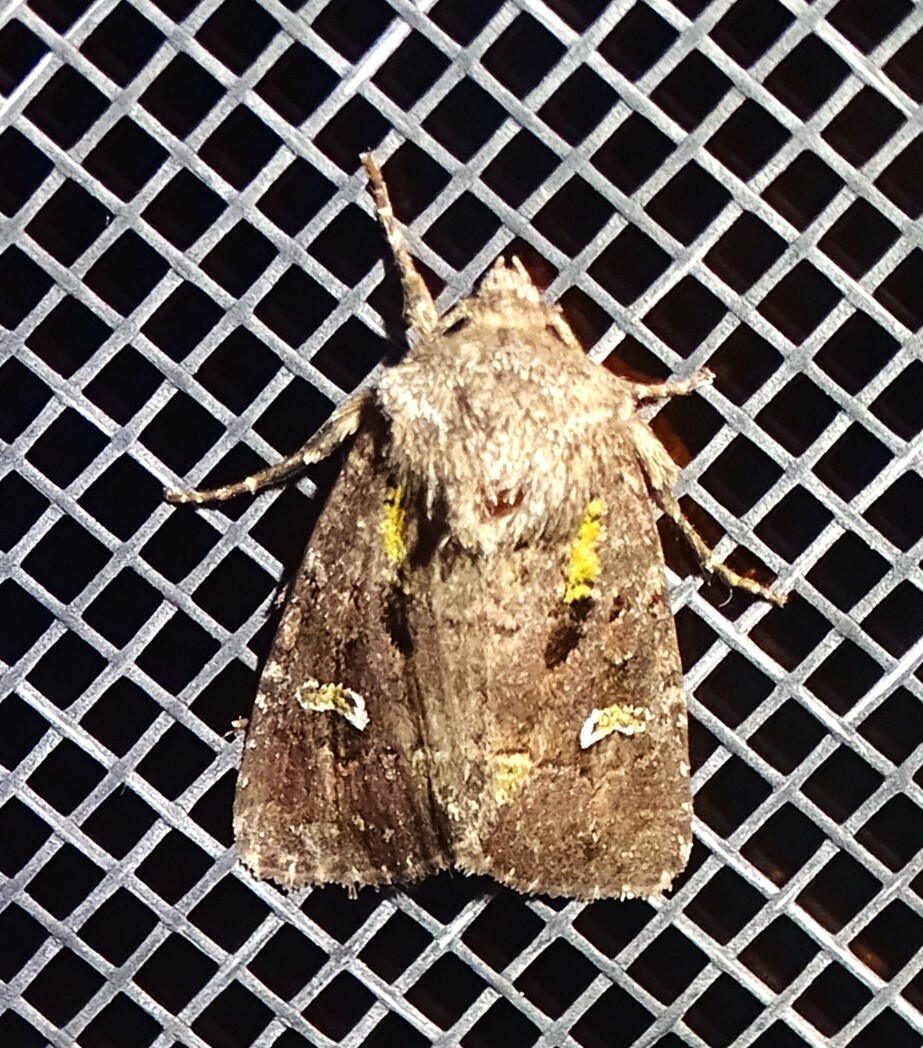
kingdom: Animalia
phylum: Arthropoda
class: Insecta
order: Lepidoptera
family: Noctuidae
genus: Lacinipolia
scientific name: Lacinipolia renigera
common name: Kidney-spotted minor
